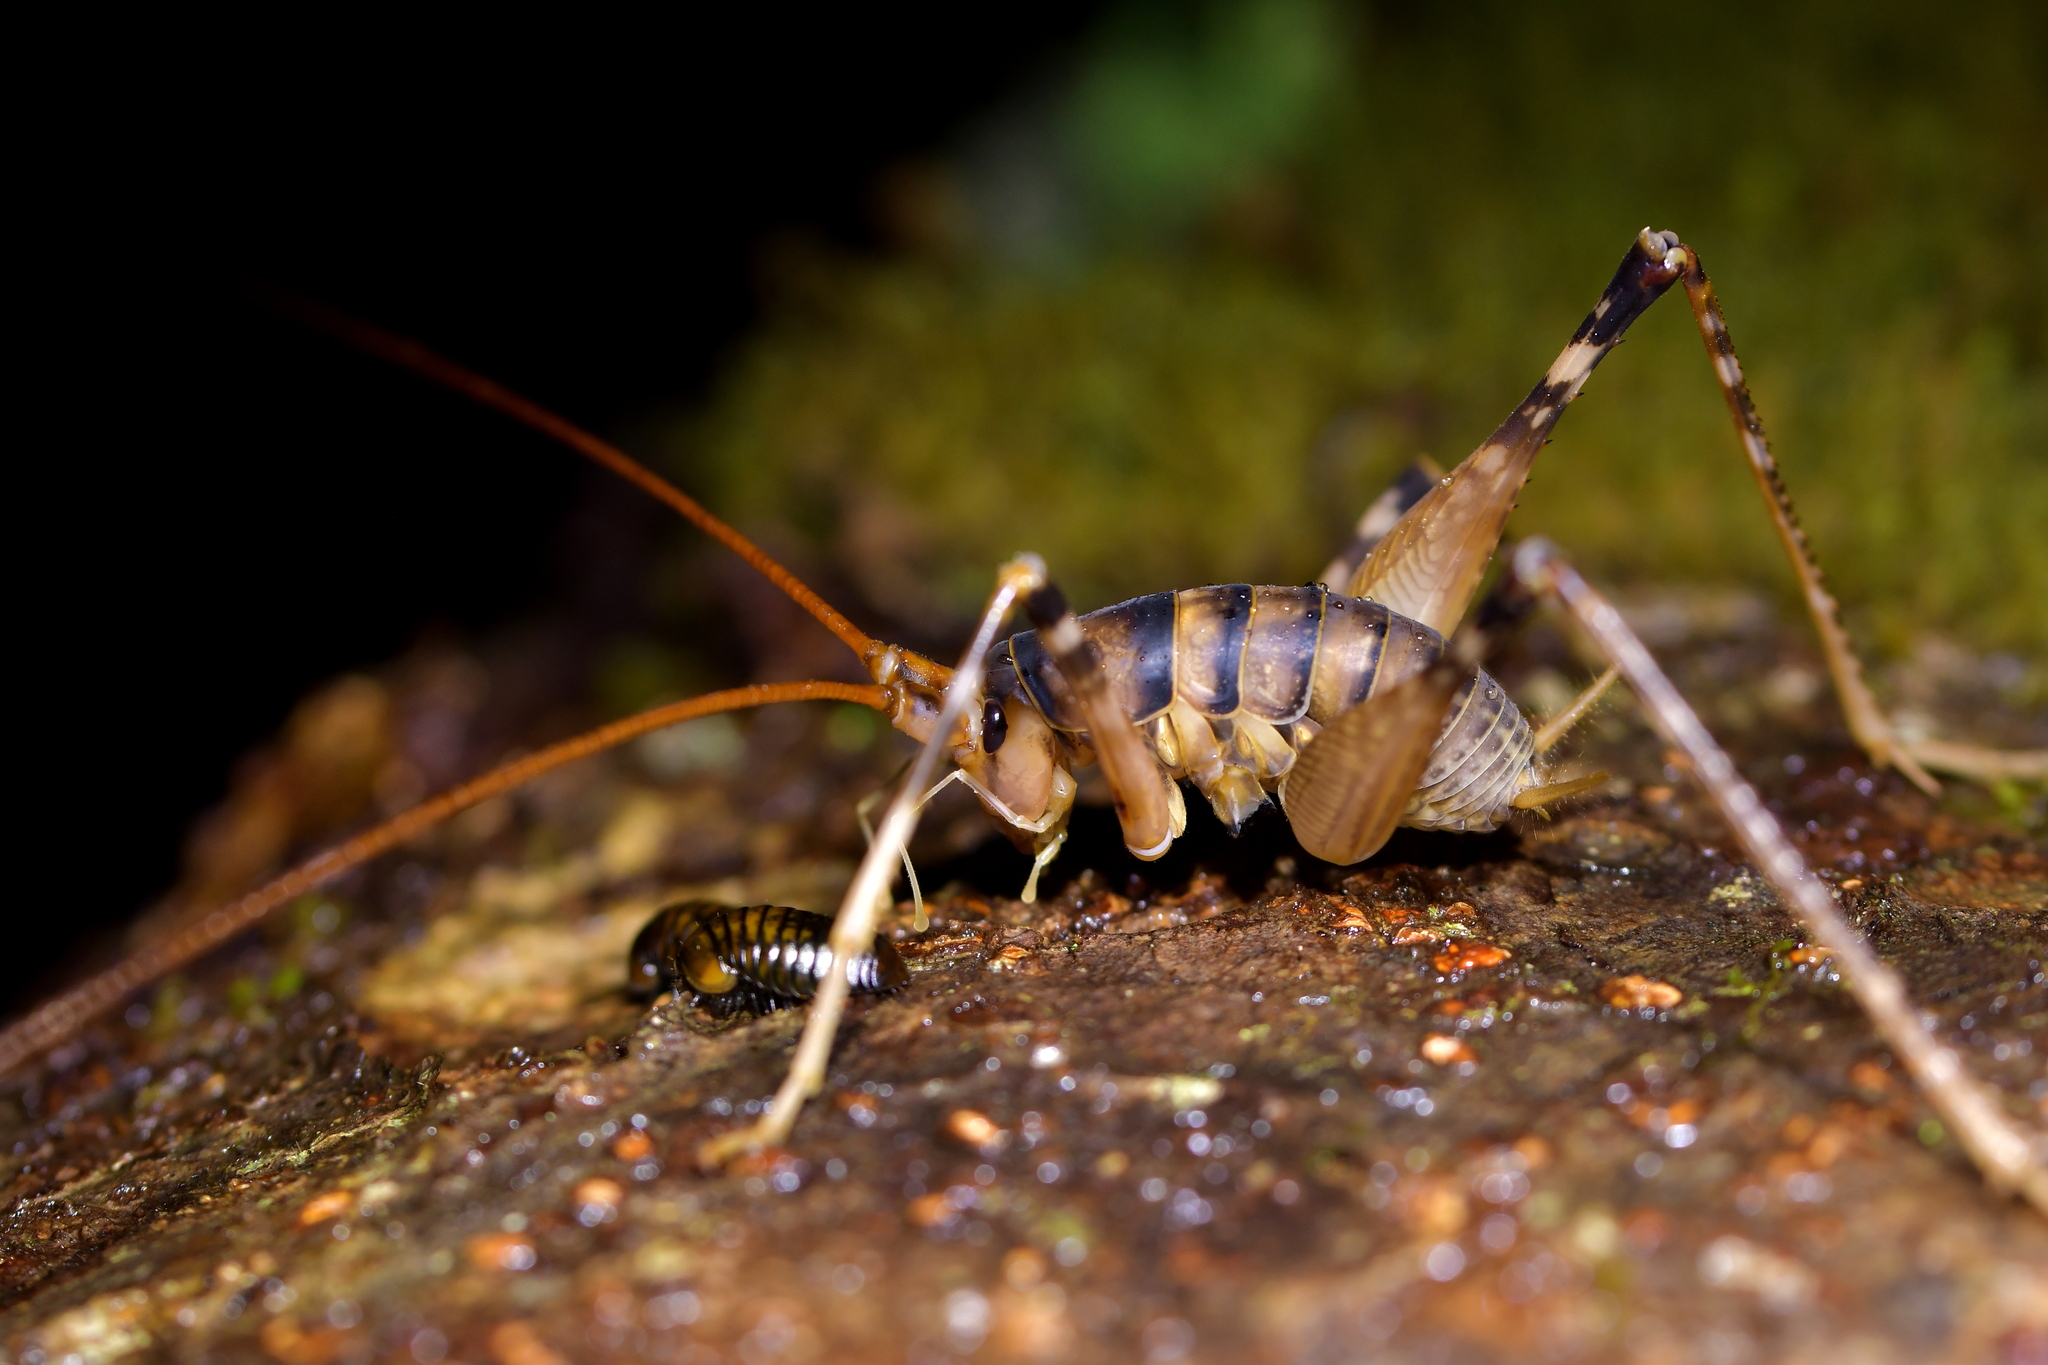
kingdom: Animalia
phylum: Arthropoda
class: Insecta
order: Orthoptera
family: Rhaphidophoridae
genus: Pachyrhamma
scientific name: Pachyrhamma edwardsii
